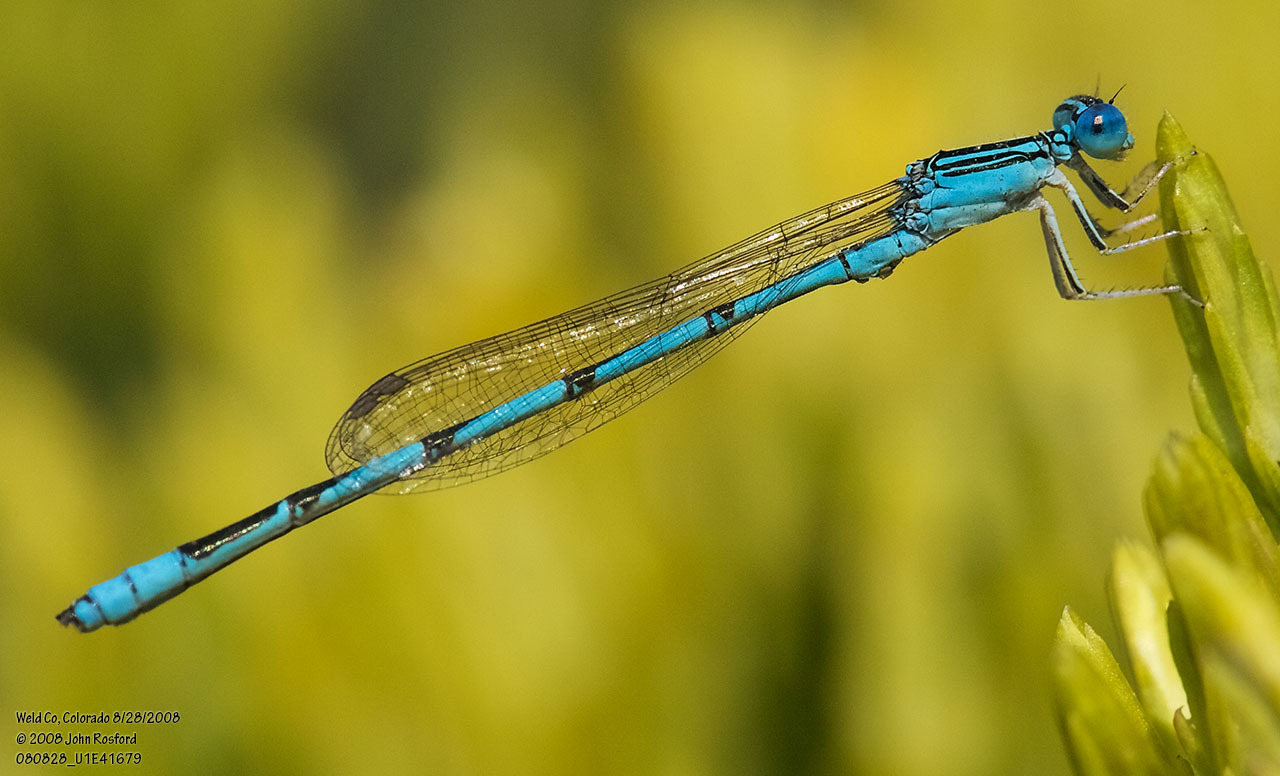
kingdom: Animalia
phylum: Arthropoda
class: Insecta
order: Odonata
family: Coenagrionidae
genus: Enallagma
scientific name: Enallagma basidens
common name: Double-striped bluet
